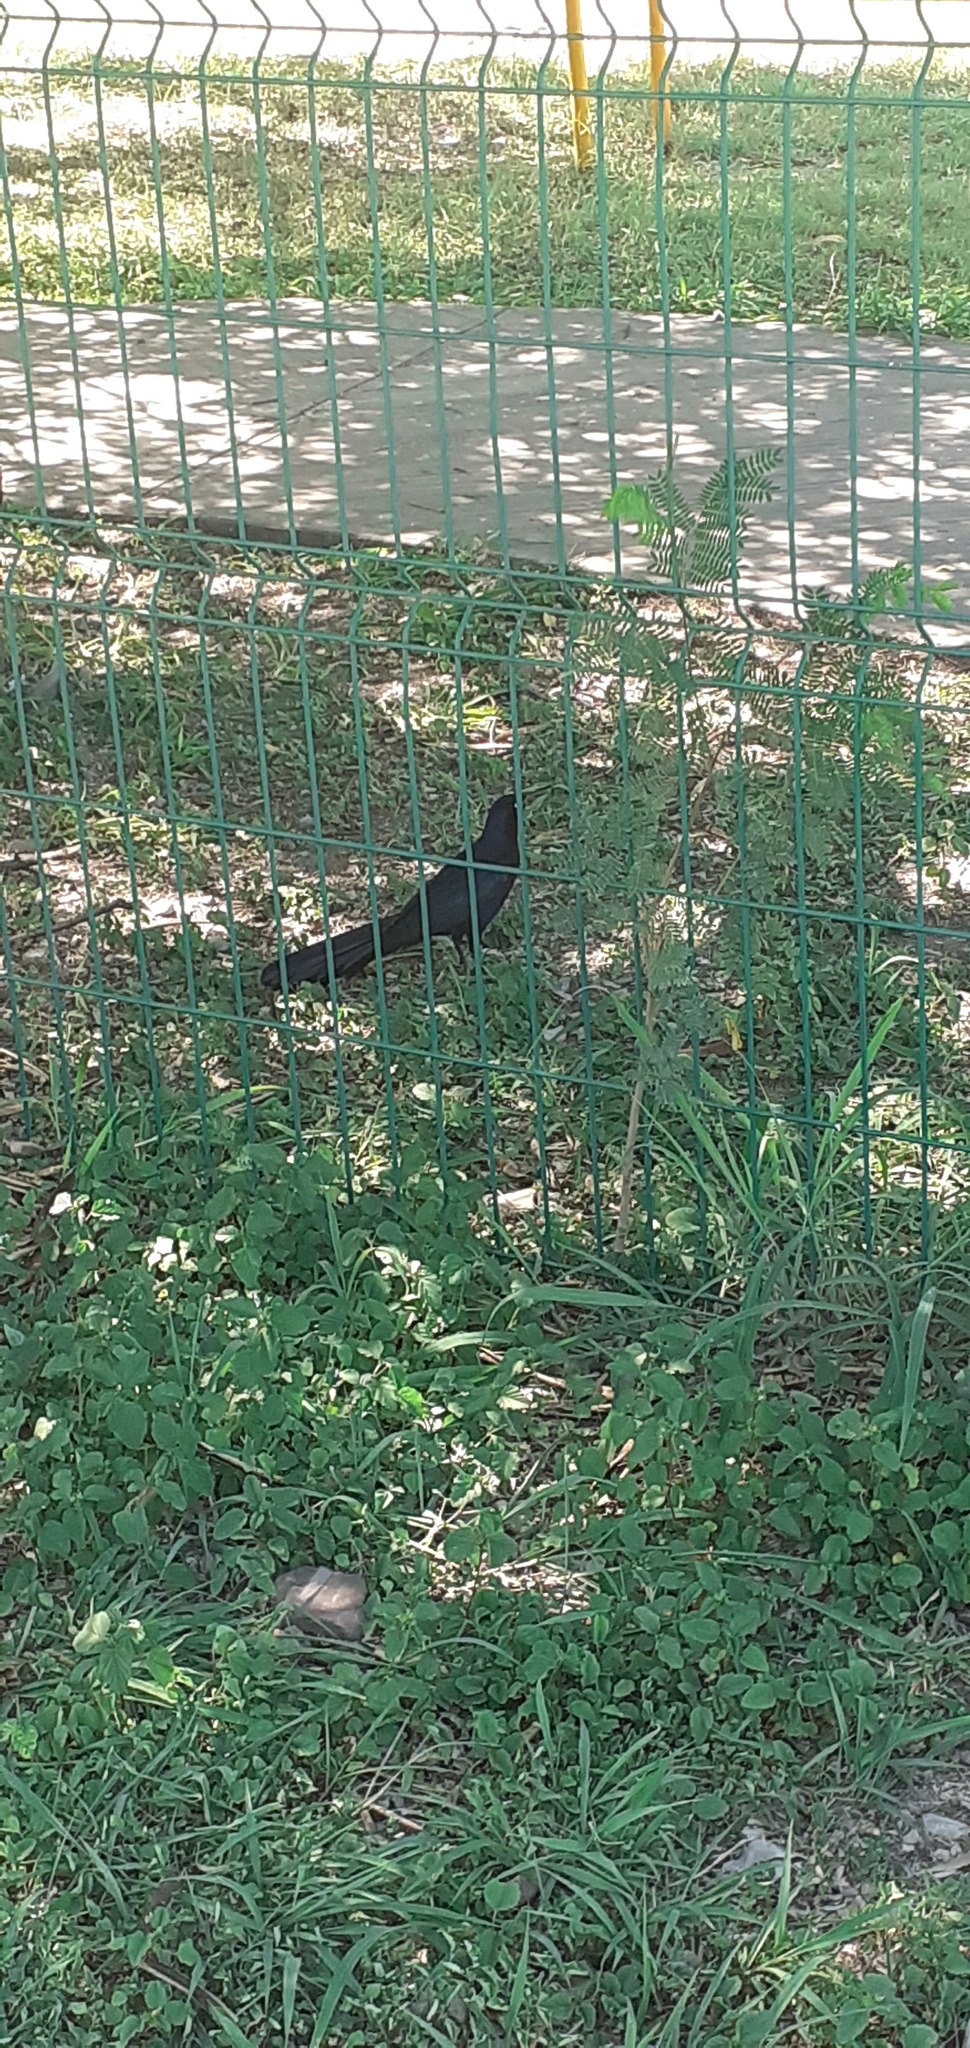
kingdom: Animalia
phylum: Chordata
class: Aves
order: Passeriformes
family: Icteridae
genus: Quiscalus
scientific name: Quiscalus mexicanus
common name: Great-tailed grackle
